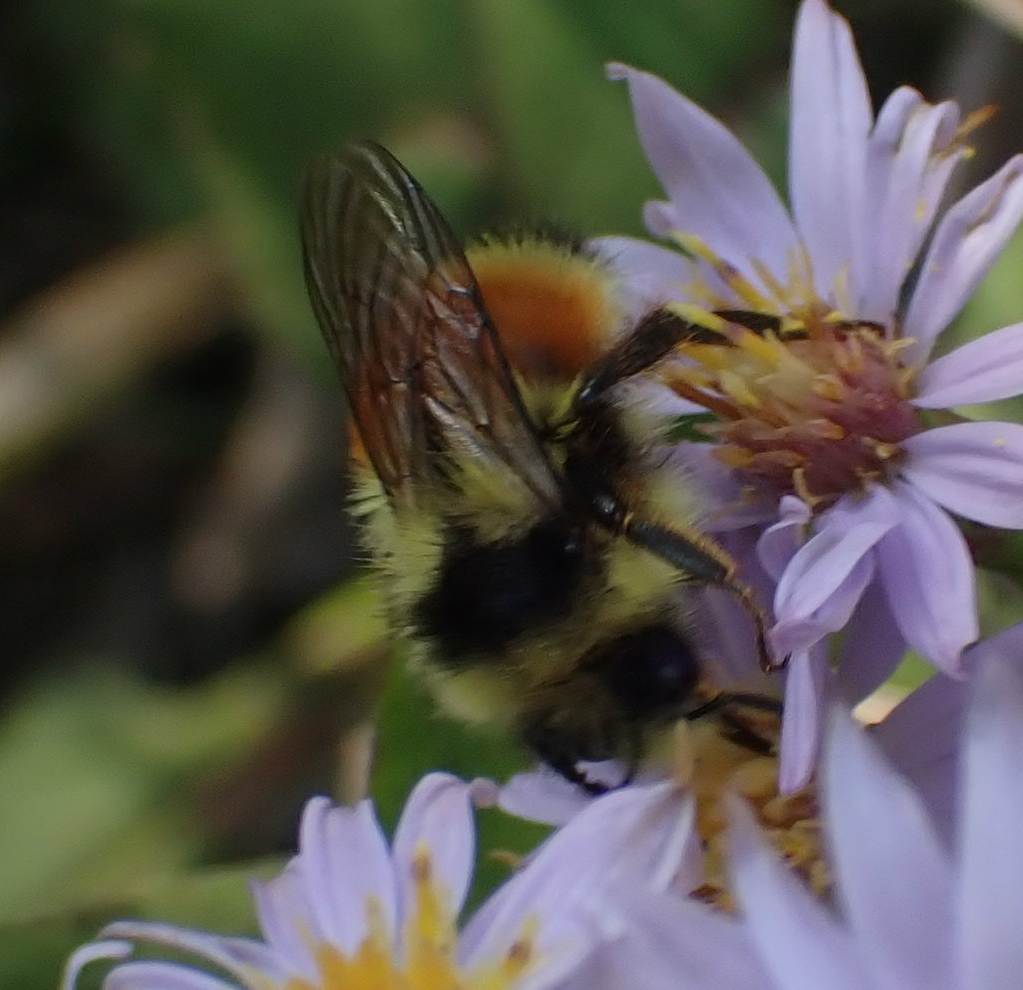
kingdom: Animalia
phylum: Arthropoda
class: Insecta
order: Hymenoptera
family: Apidae
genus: Bombus
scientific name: Bombus ternarius
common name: Tri-colored bumble bee
